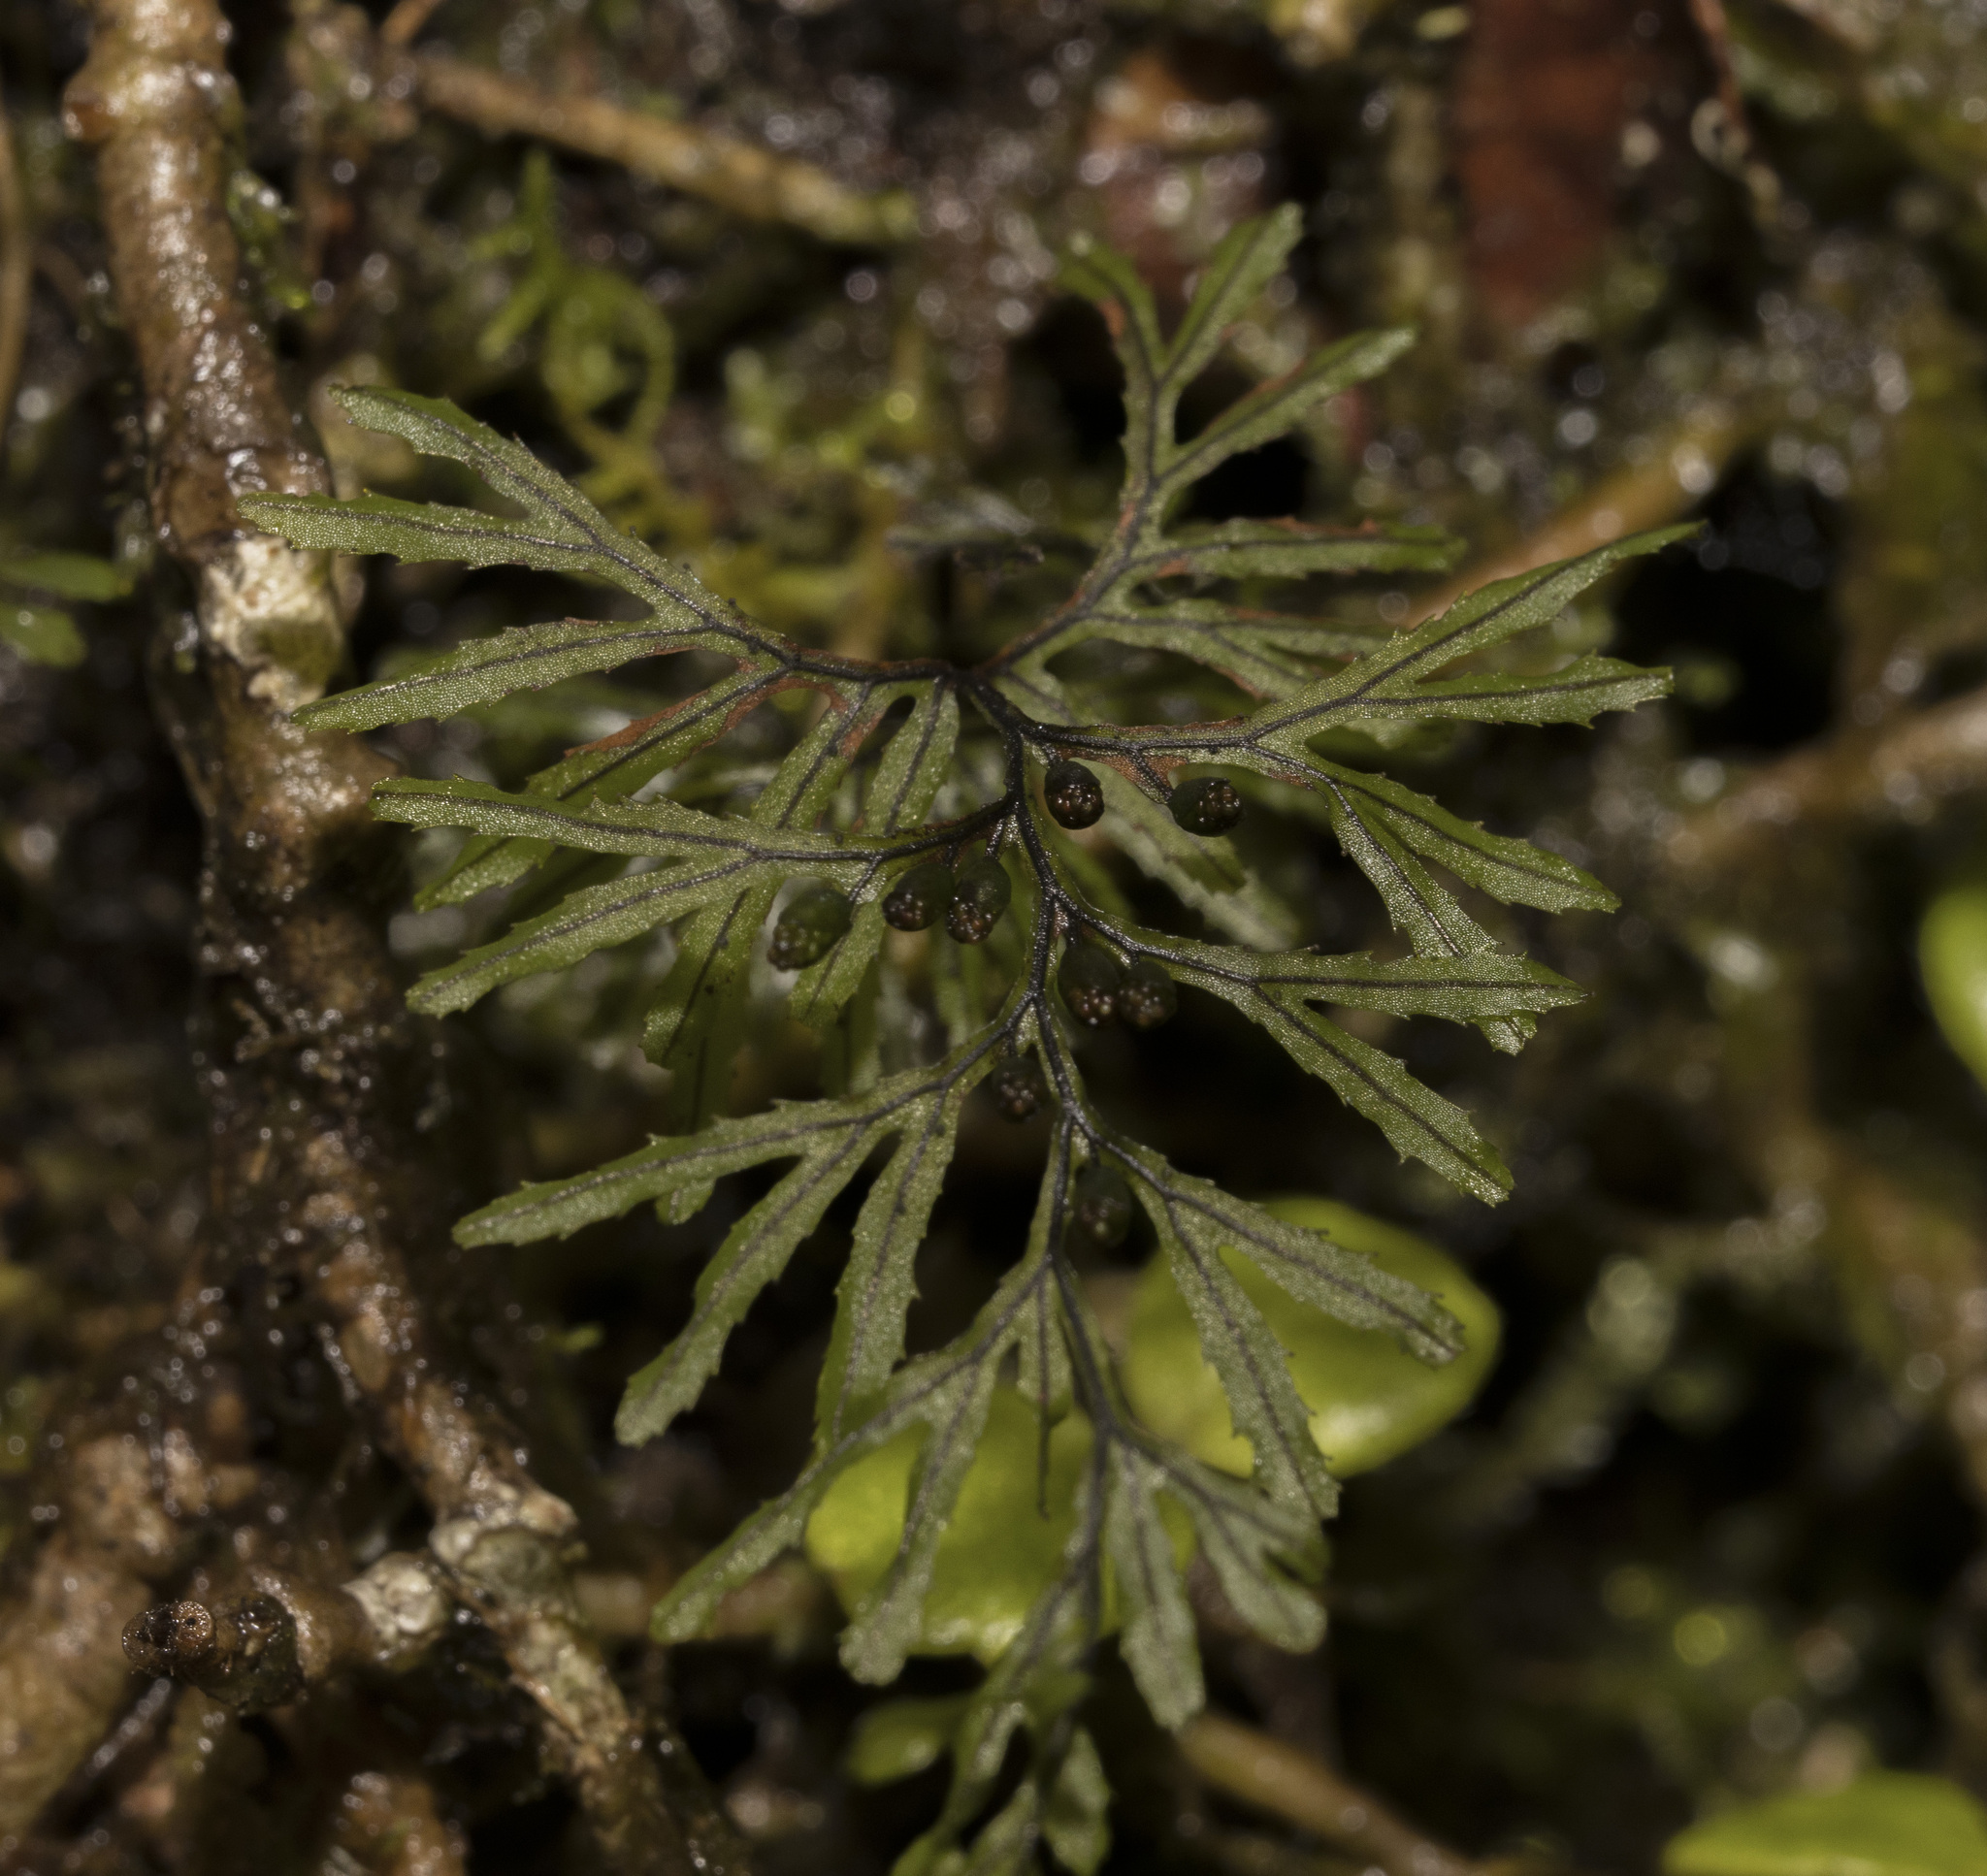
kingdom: Plantae
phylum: Tracheophyta
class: Polypodiopsida
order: Hymenophyllales
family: Hymenophyllaceae
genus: Hymenophyllum
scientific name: Hymenophyllum secundum
